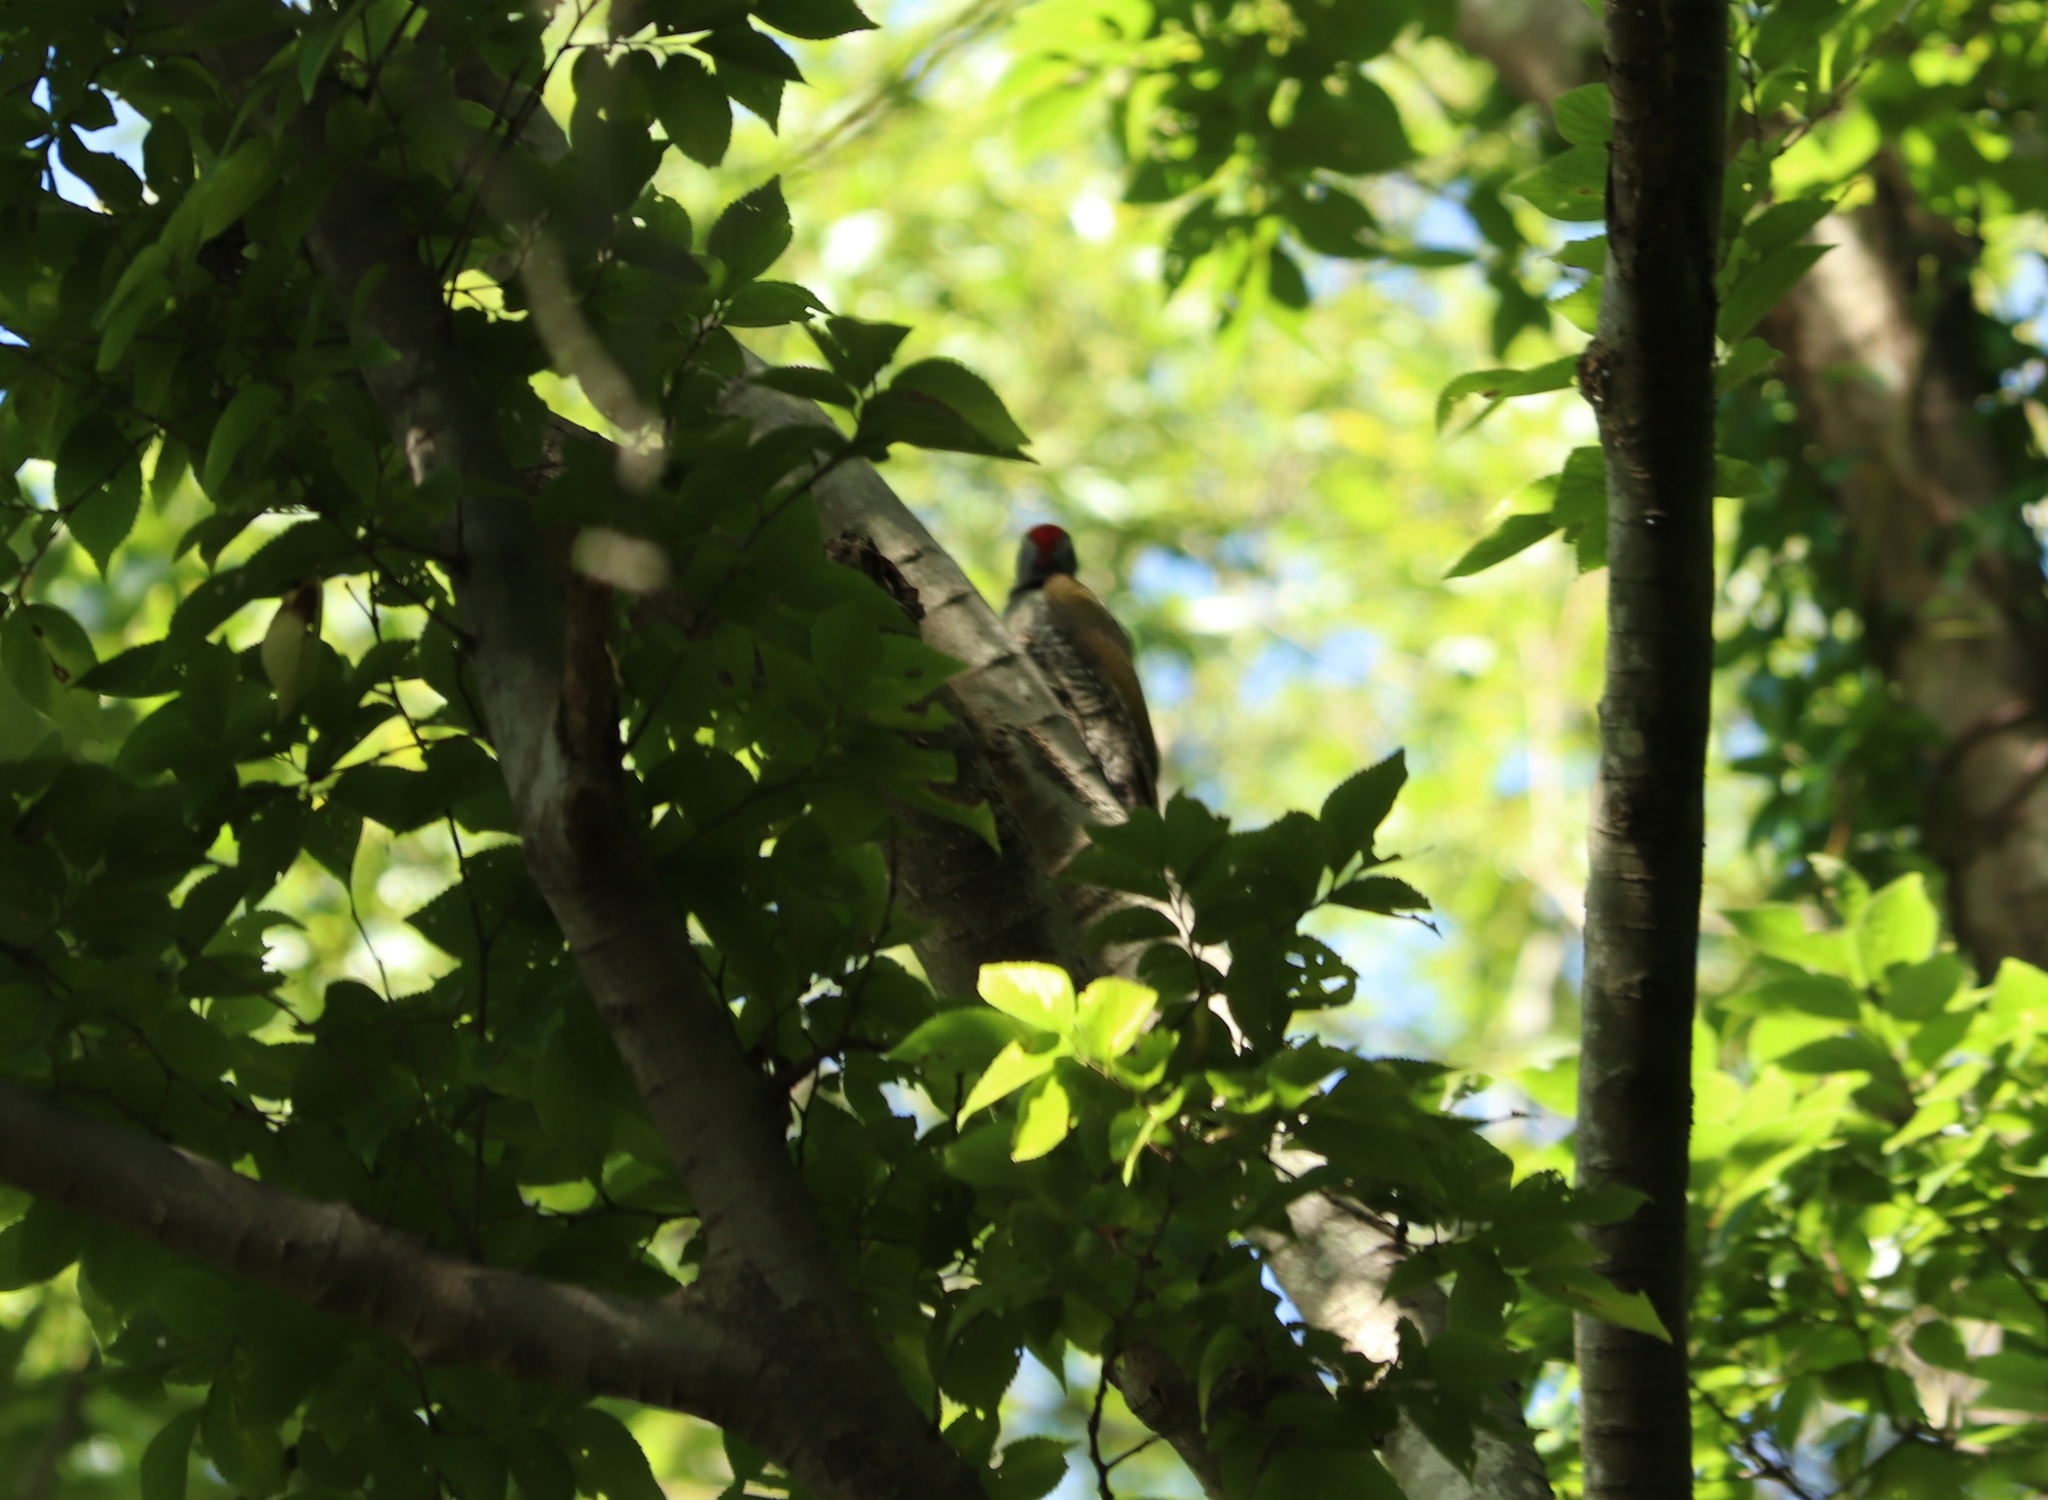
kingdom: Animalia
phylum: Chordata
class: Aves
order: Piciformes
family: Picidae
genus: Picus
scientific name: Picus awokera
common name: Japanese green woodpecker
